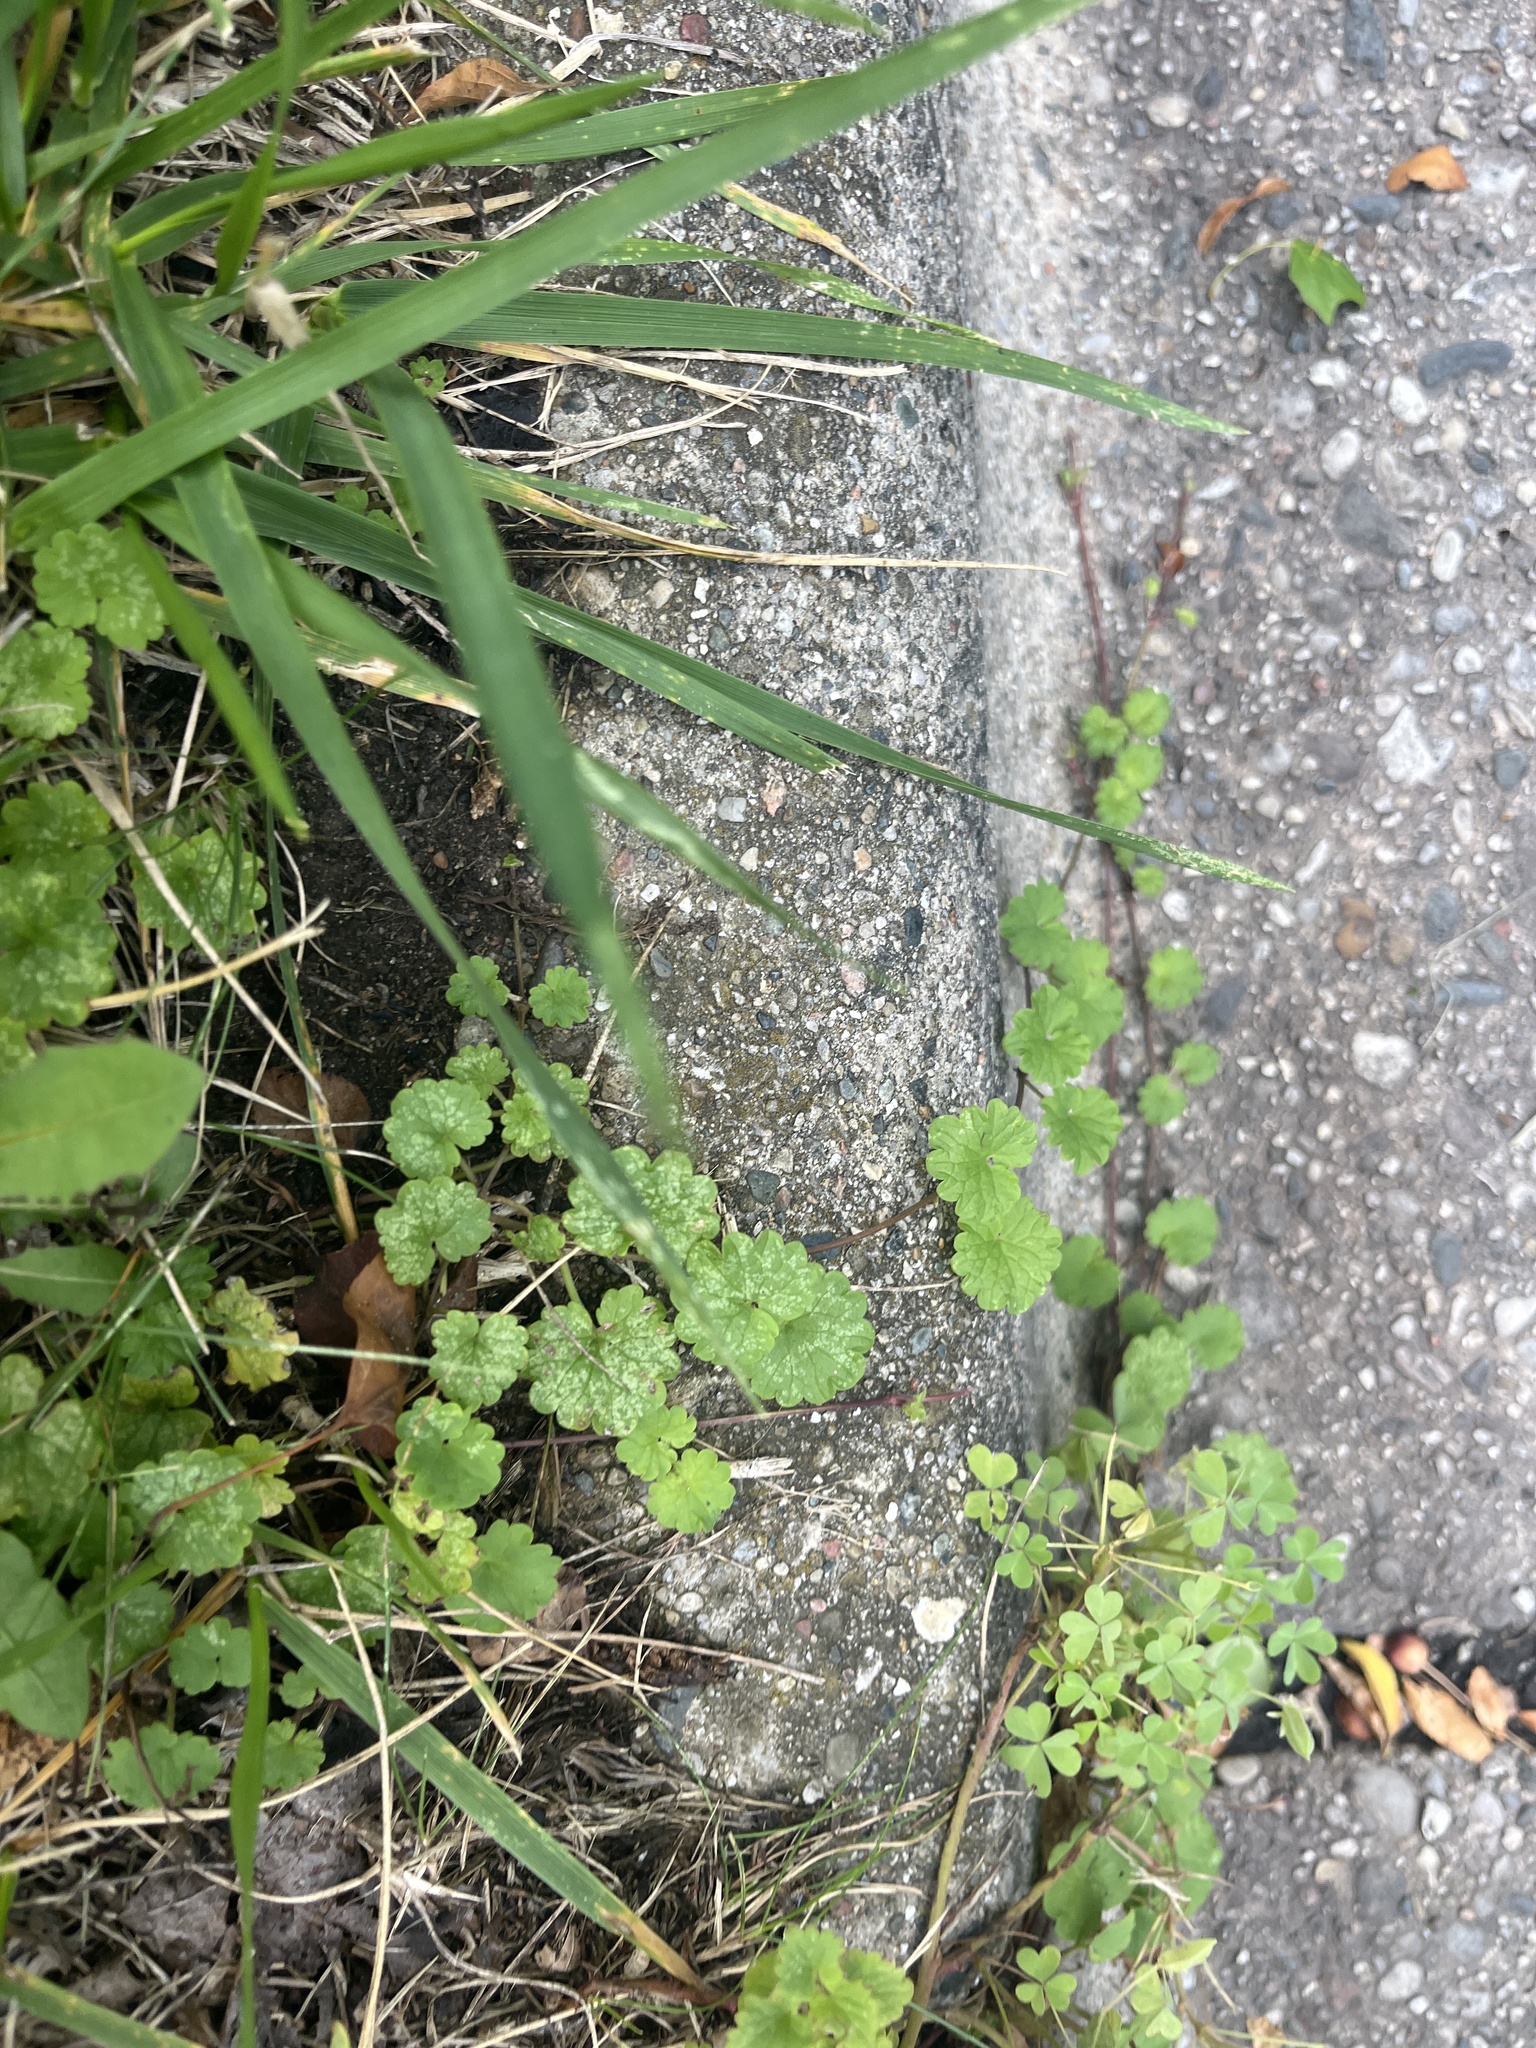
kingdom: Plantae
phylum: Tracheophyta
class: Magnoliopsida
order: Lamiales
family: Lamiaceae
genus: Glechoma
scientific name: Glechoma hederacea
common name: Ground ivy
